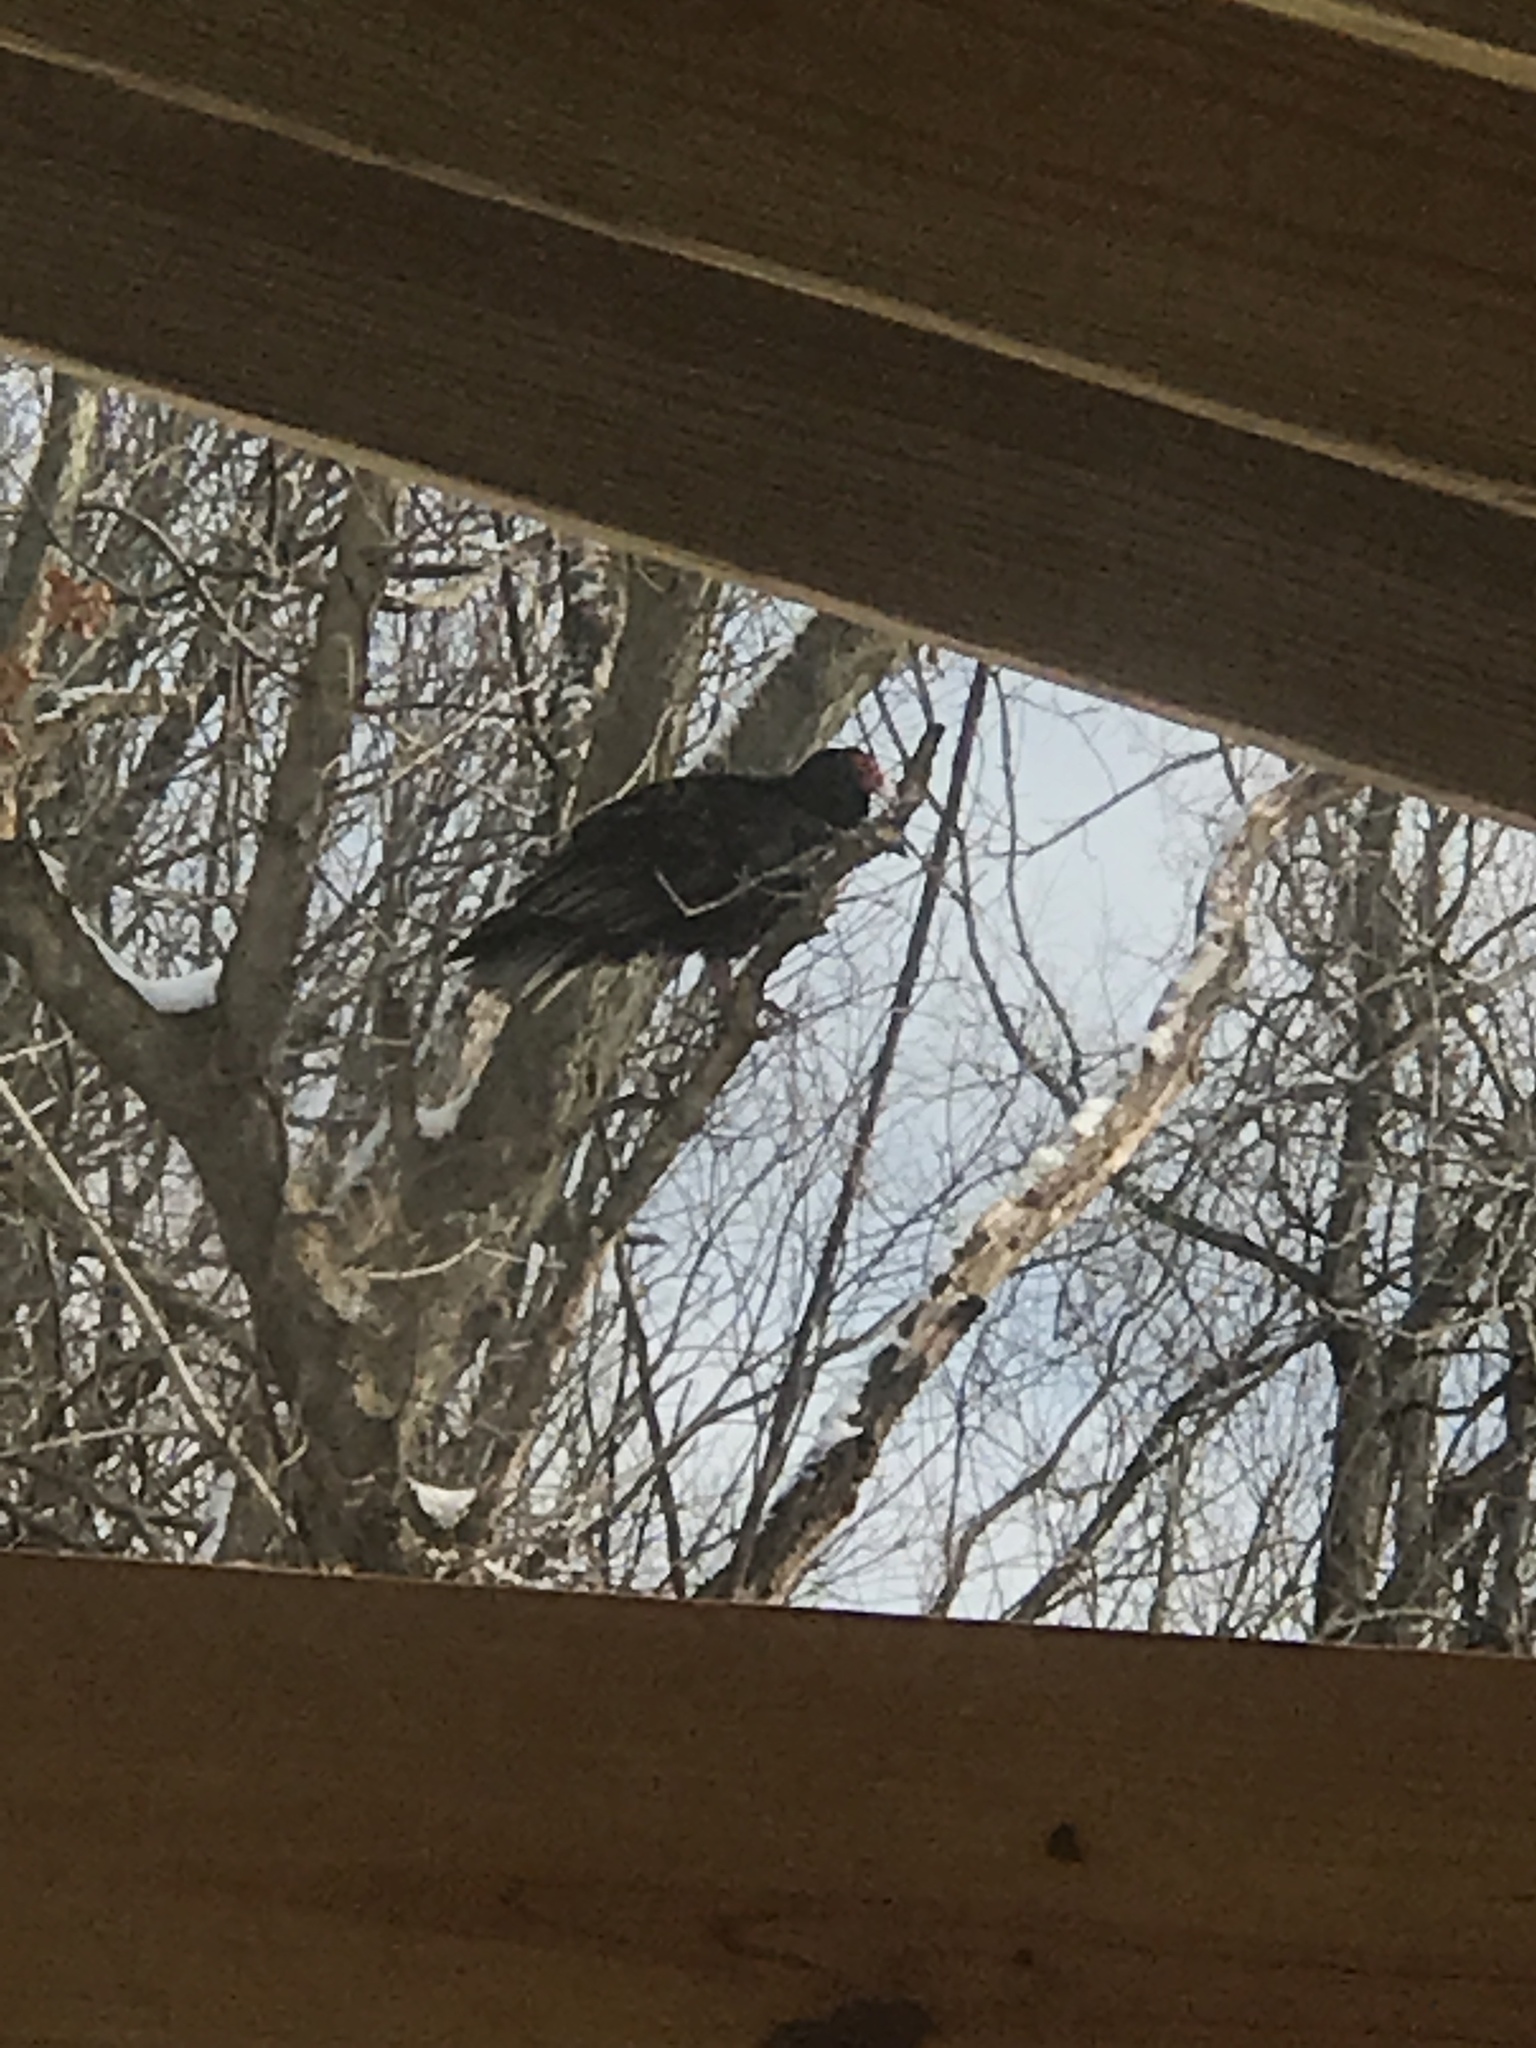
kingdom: Animalia
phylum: Chordata
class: Aves
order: Accipitriformes
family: Cathartidae
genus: Cathartes
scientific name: Cathartes aura
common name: Turkey vulture
